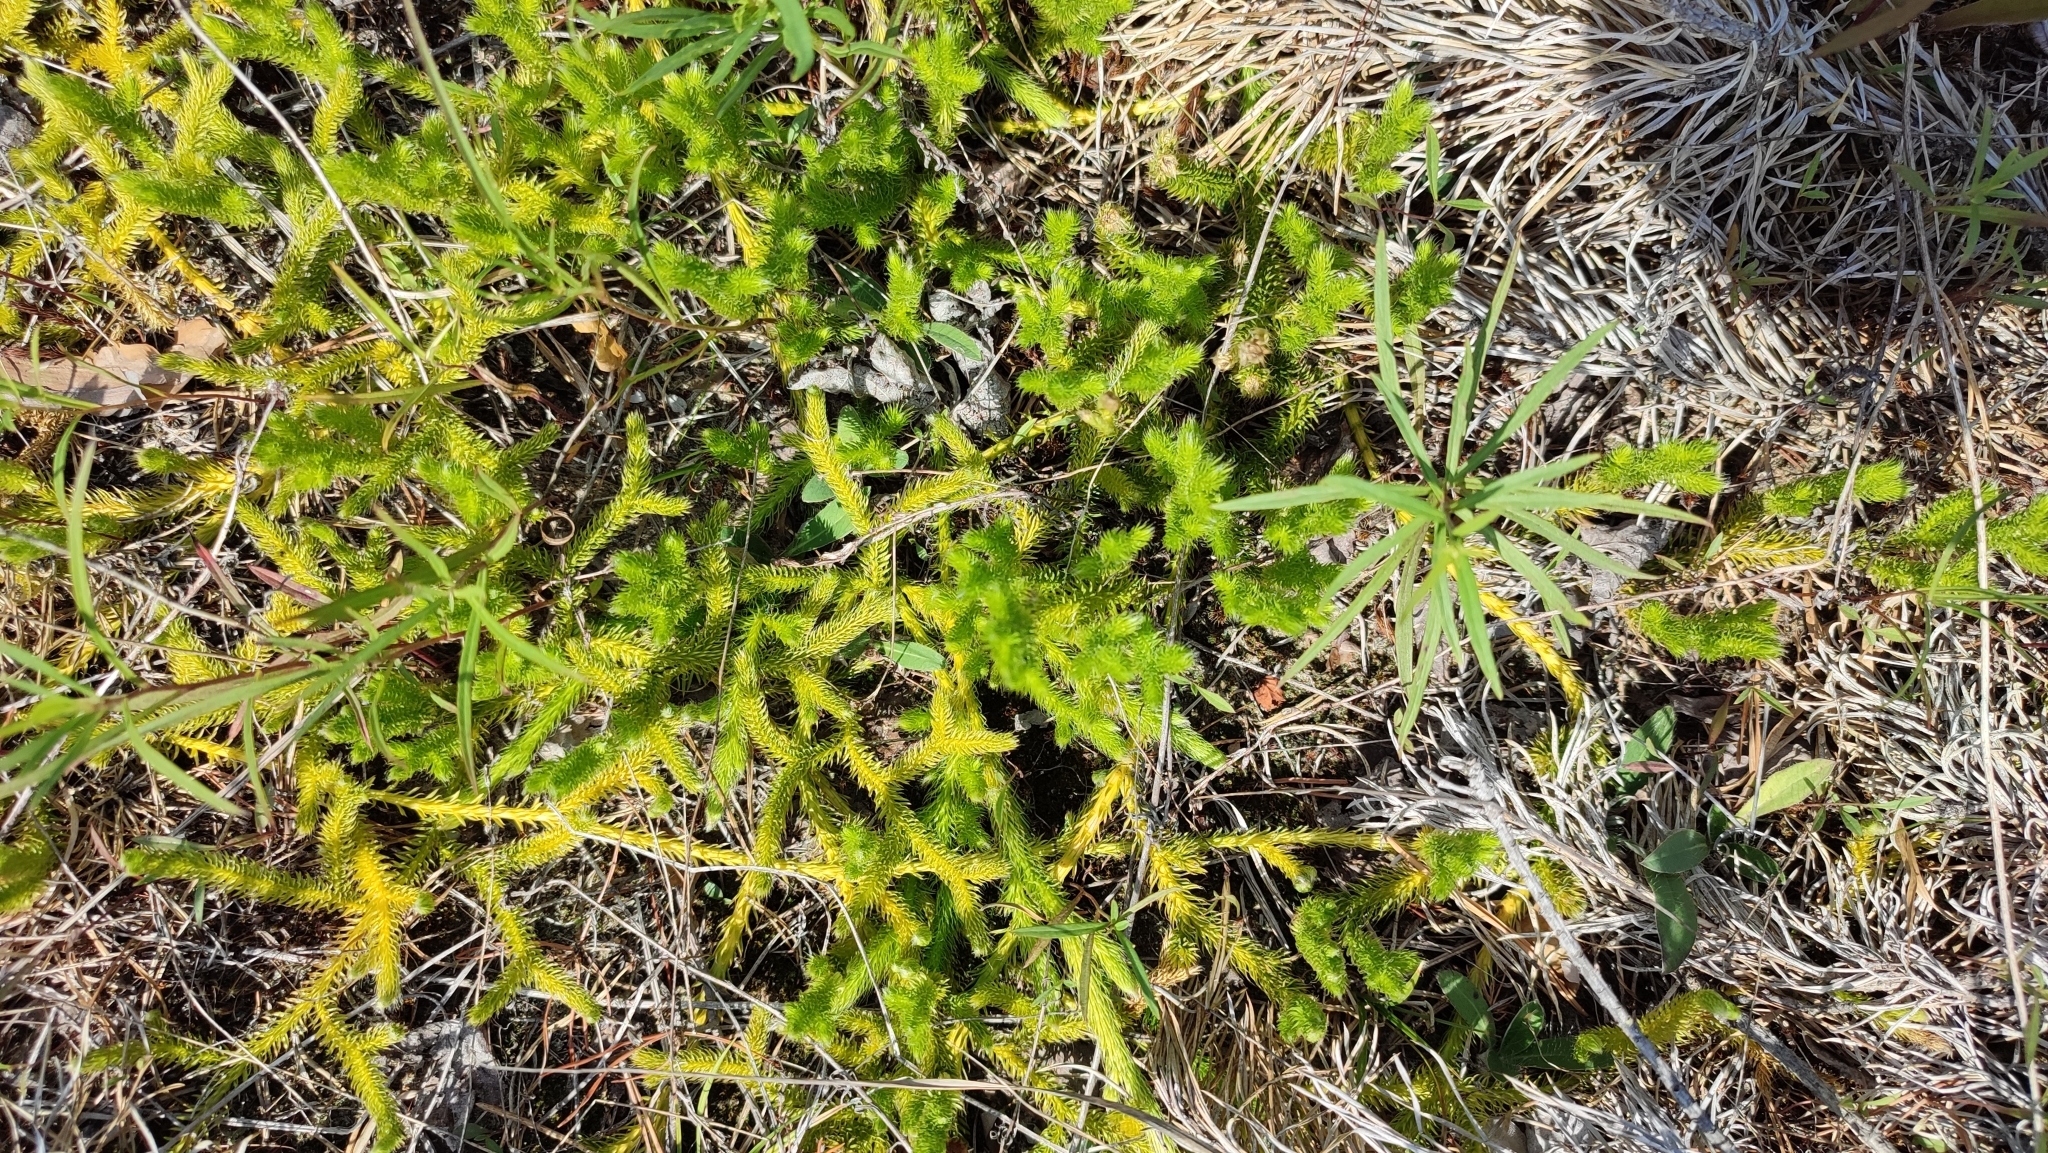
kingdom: Plantae
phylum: Tracheophyta
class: Lycopodiopsida
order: Lycopodiales
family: Lycopodiaceae
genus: Lycopodium
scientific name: Lycopodium clavatum
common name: Stag's-horn clubmoss
